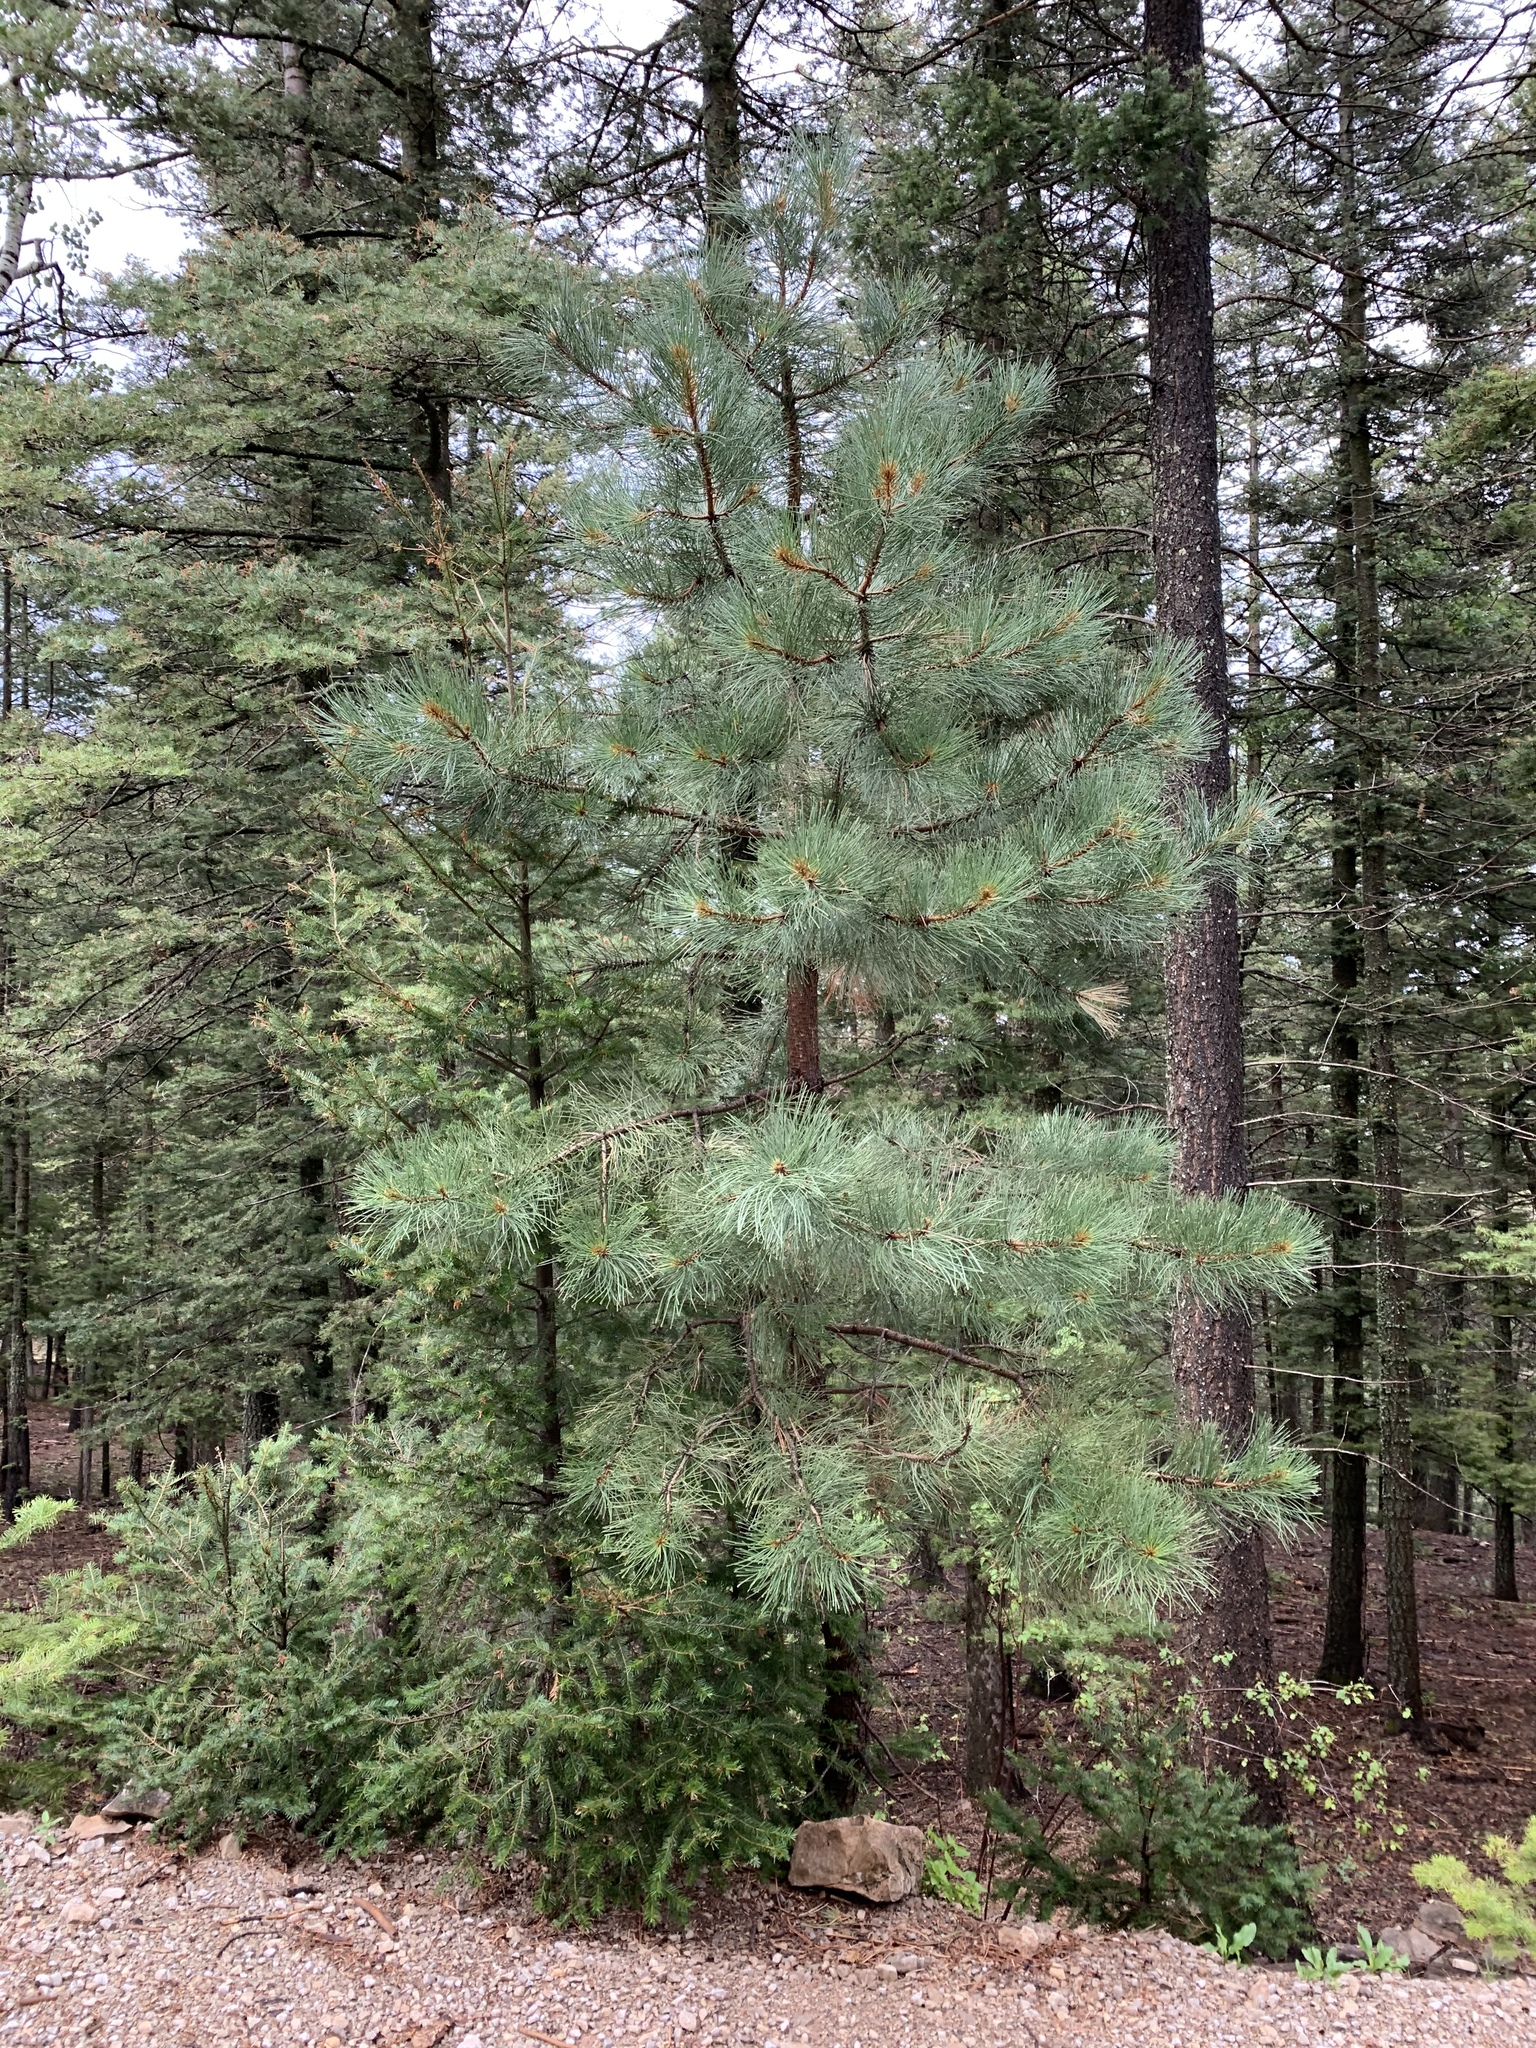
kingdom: Plantae
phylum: Tracheophyta
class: Pinopsida
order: Pinales
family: Pinaceae
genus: Pinus
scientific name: Pinus ponderosa
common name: Western yellow-pine
